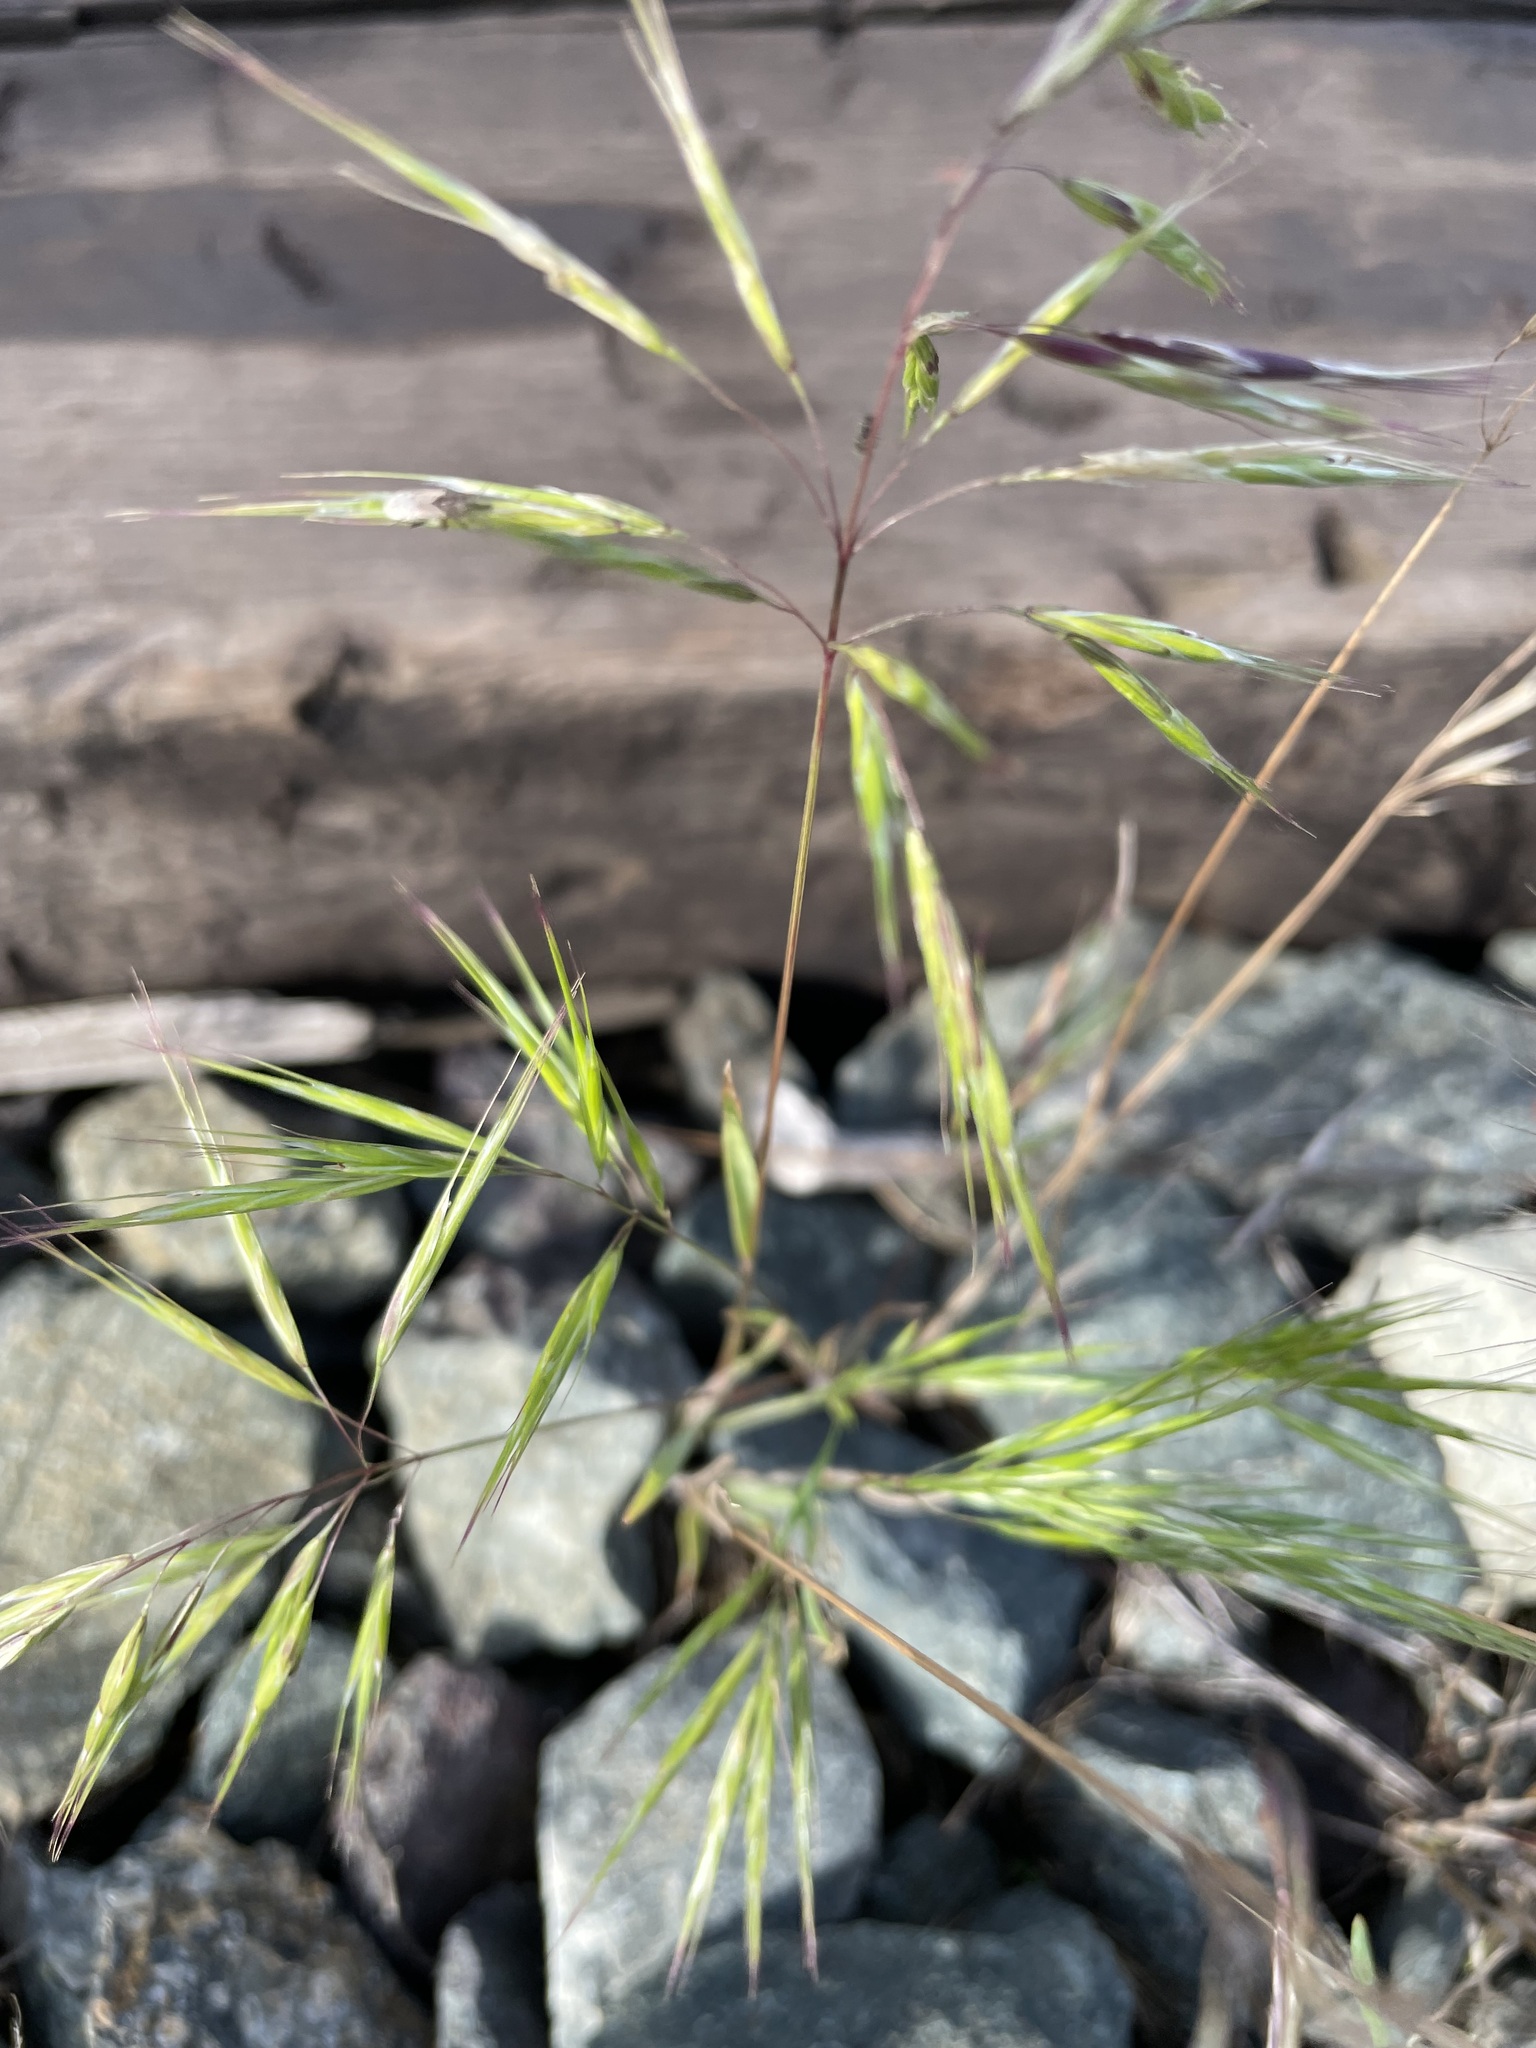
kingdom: Plantae
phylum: Tracheophyta
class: Liliopsida
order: Poales
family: Poaceae
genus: Bromus
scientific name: Bromus tectorum
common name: Cheatgrass
